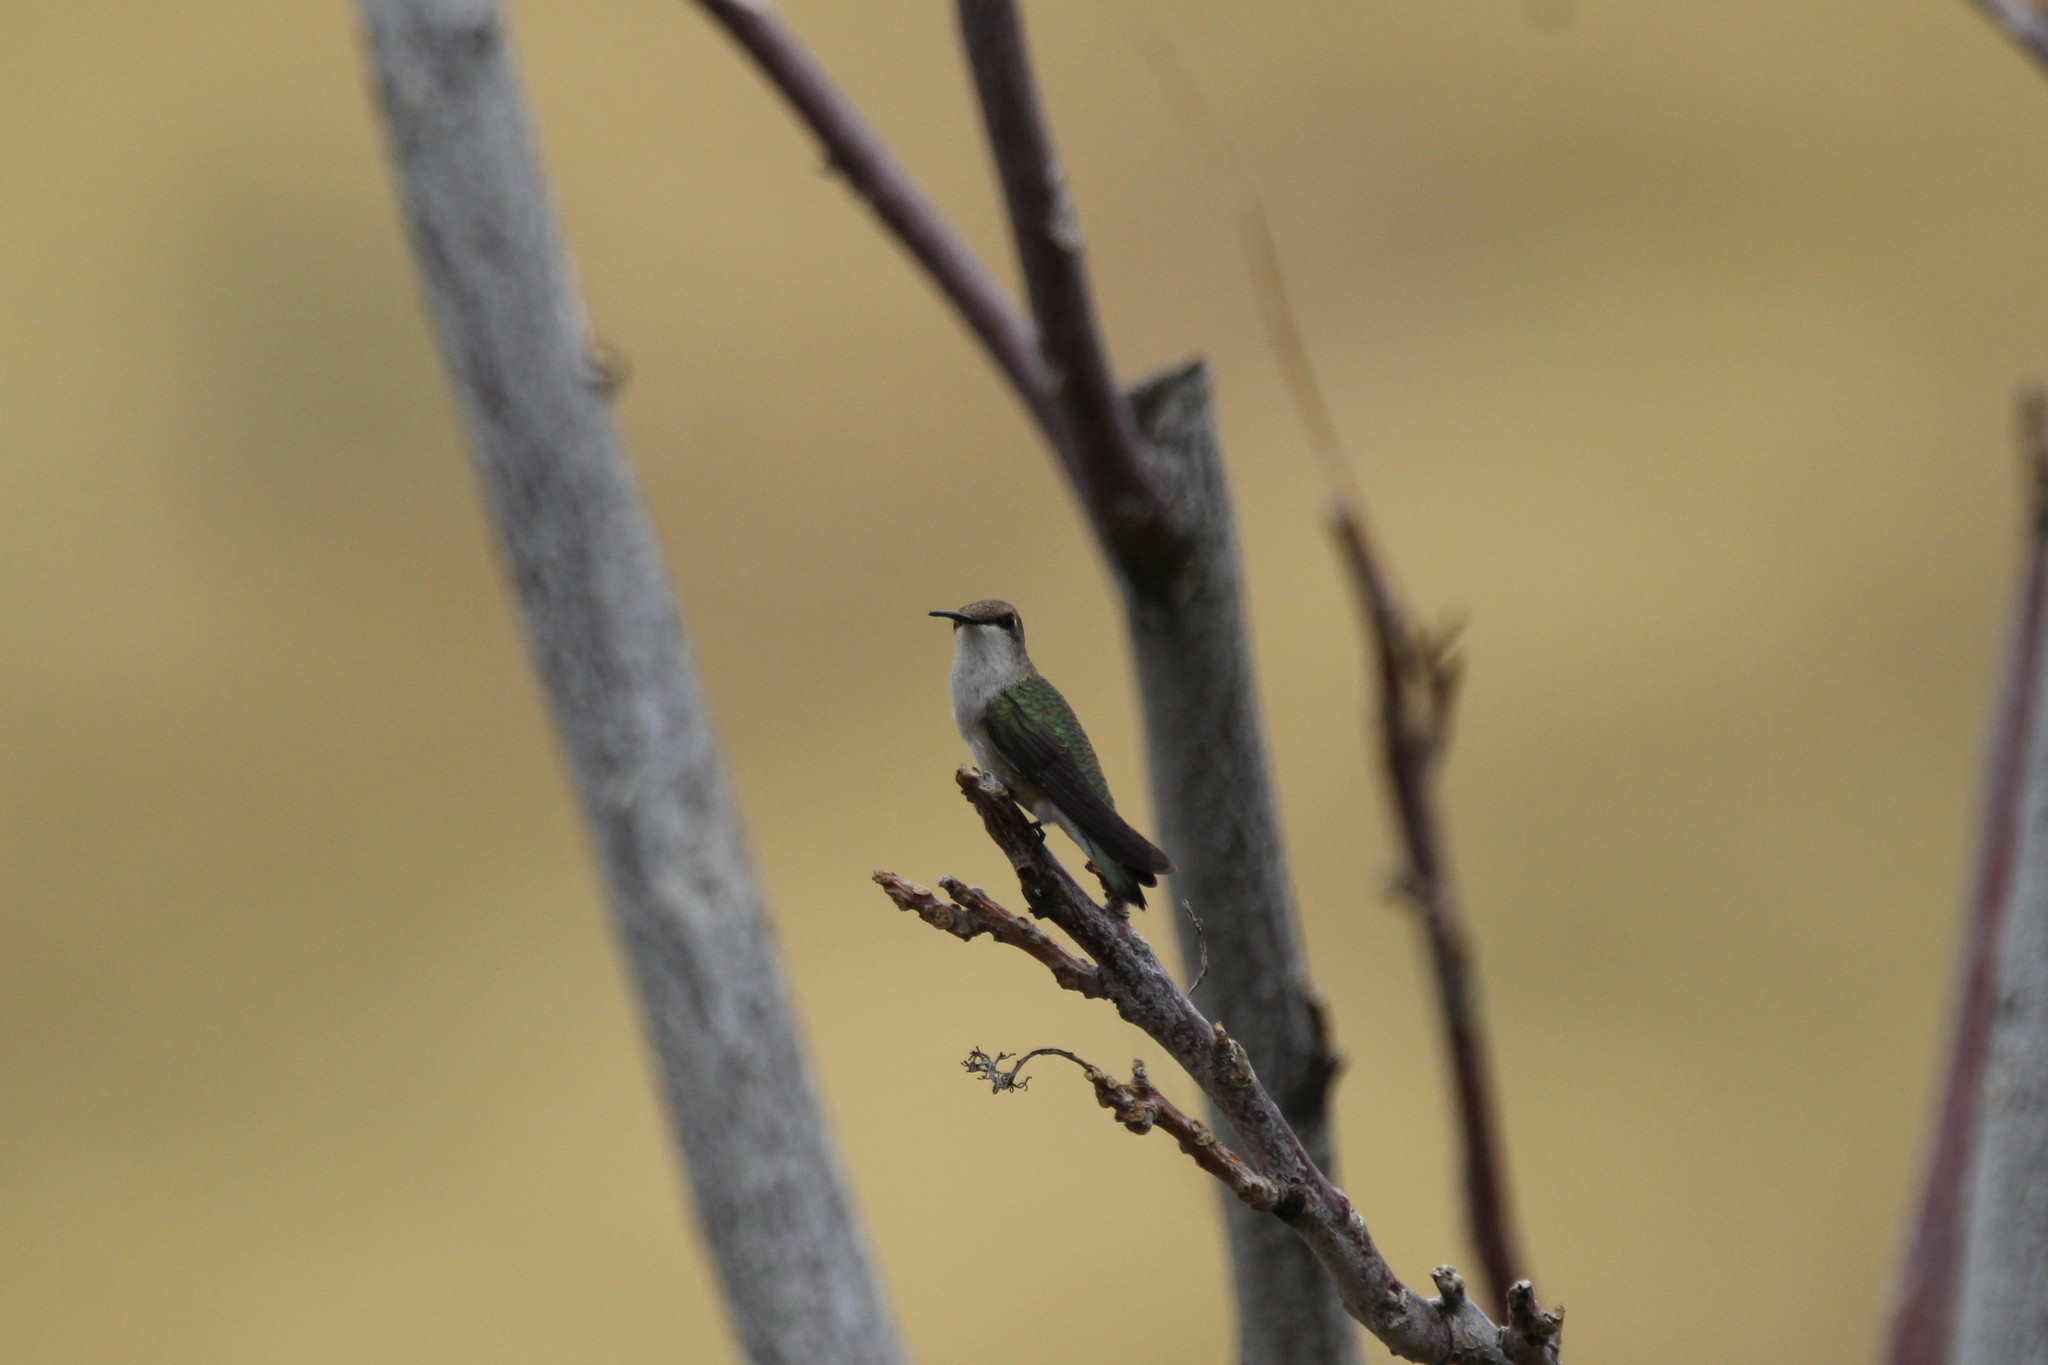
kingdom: Animalia
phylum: Chordata
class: Aves
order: Apodiformes
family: Trochilidae
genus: Archilochus
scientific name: Archilochus alexandri
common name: Black-chinned hummingbird
